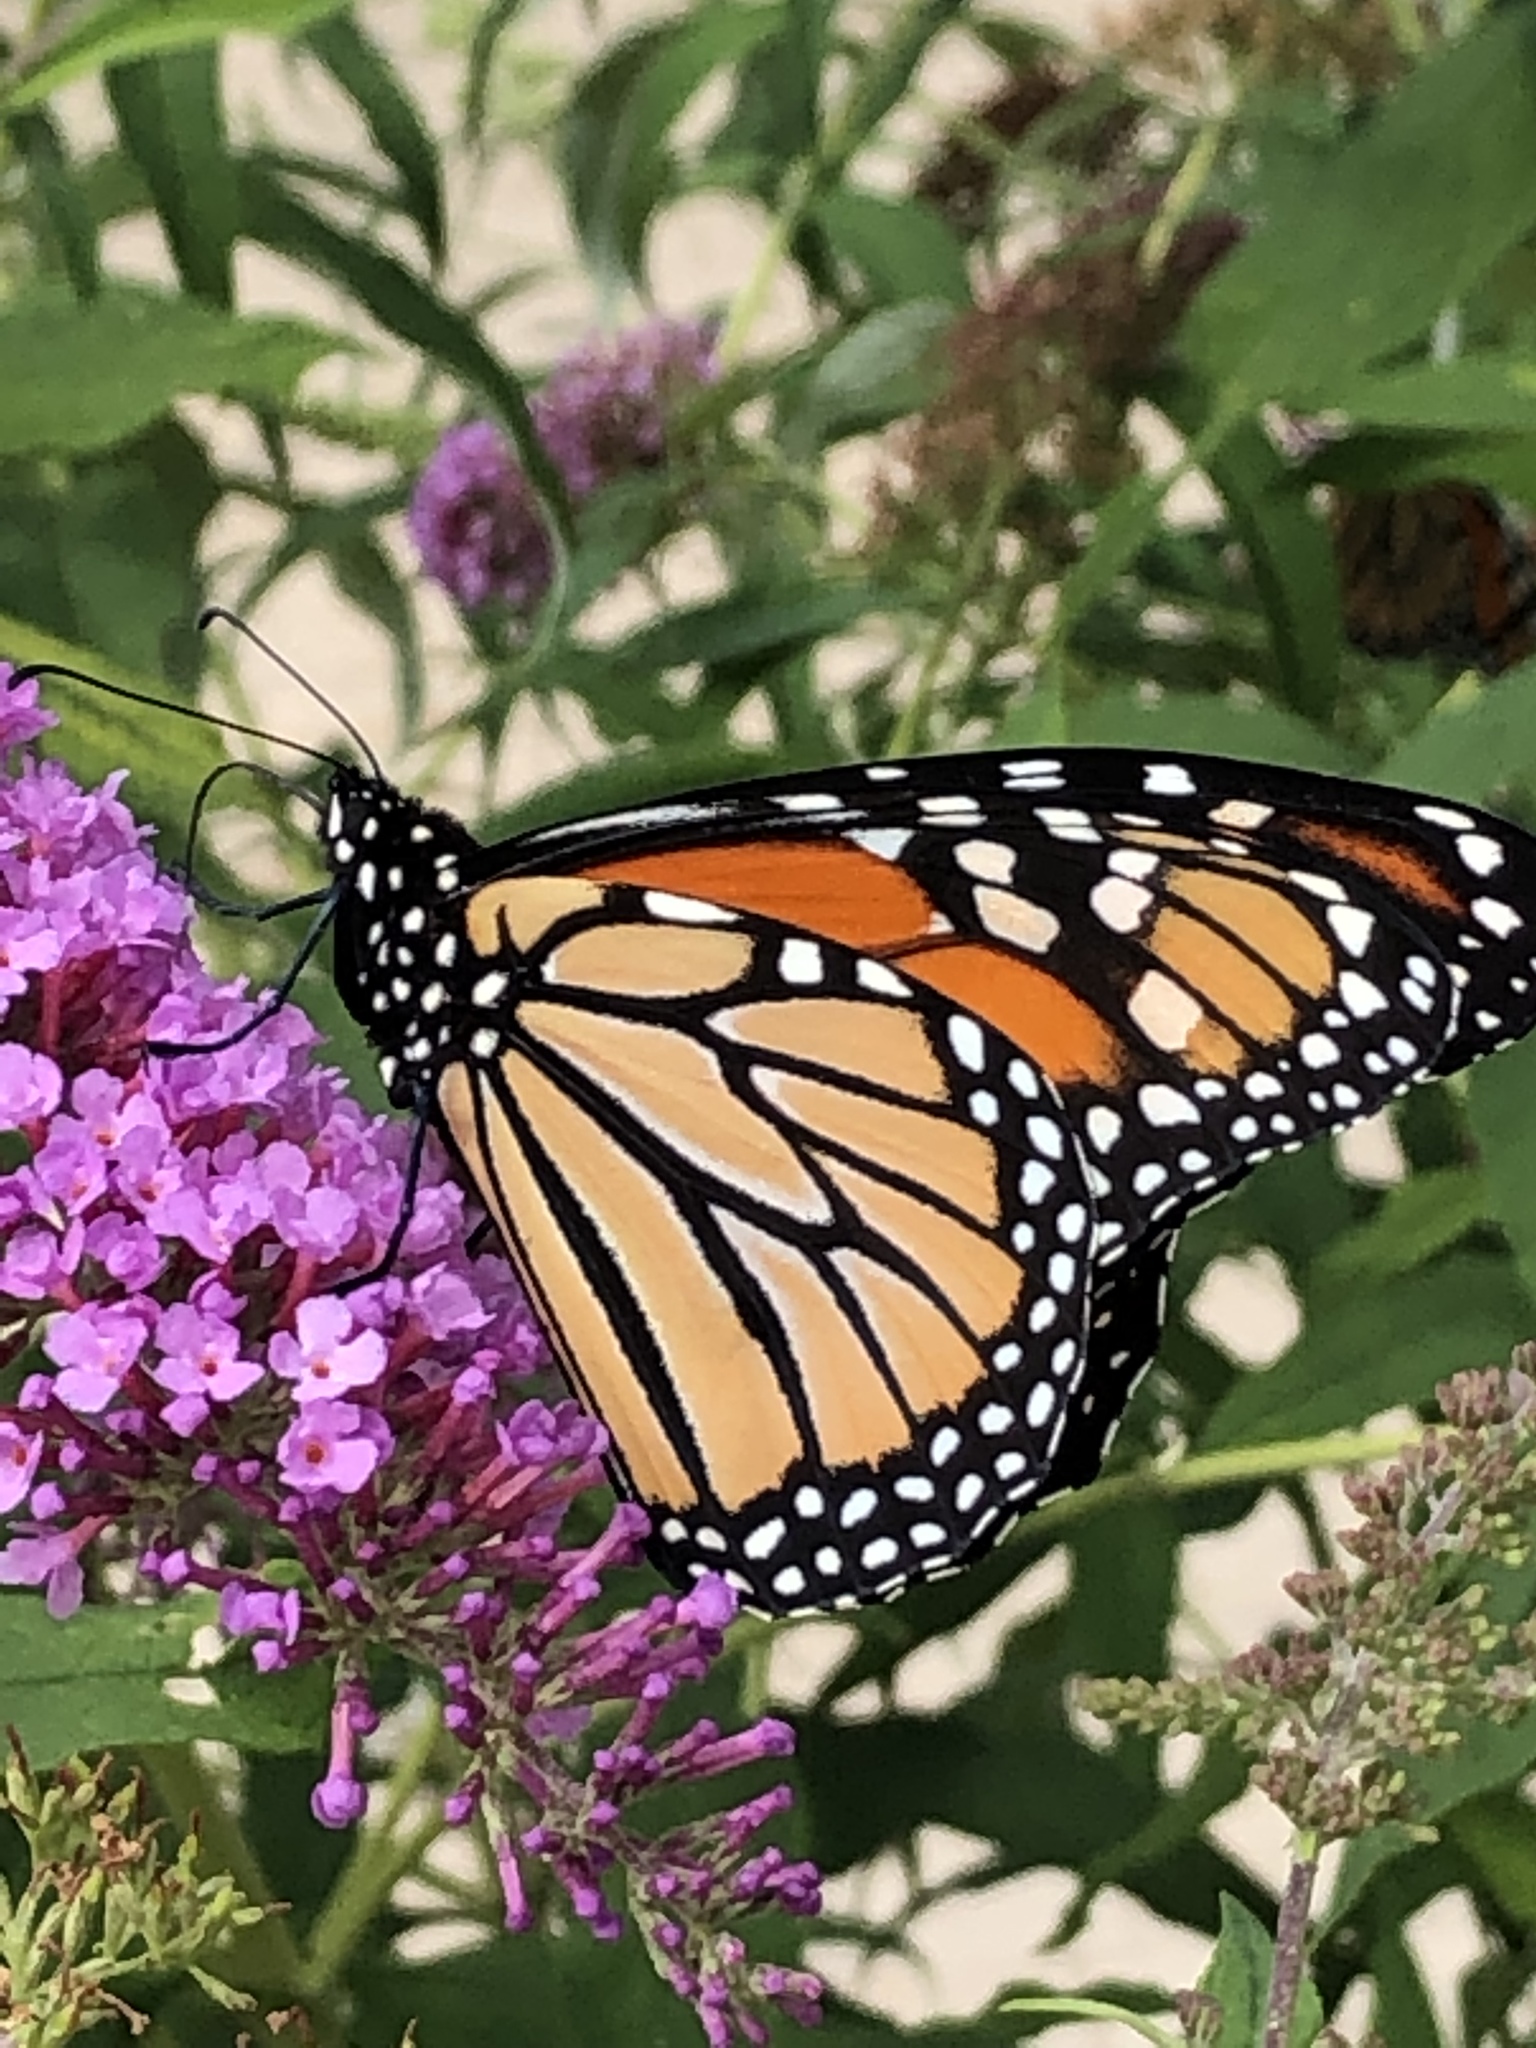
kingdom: Animalia
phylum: Arthropoda
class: Insecta
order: Lepidoptera
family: Nymphalidae
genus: Danaus
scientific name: Danaus plexippus
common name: Monarch
